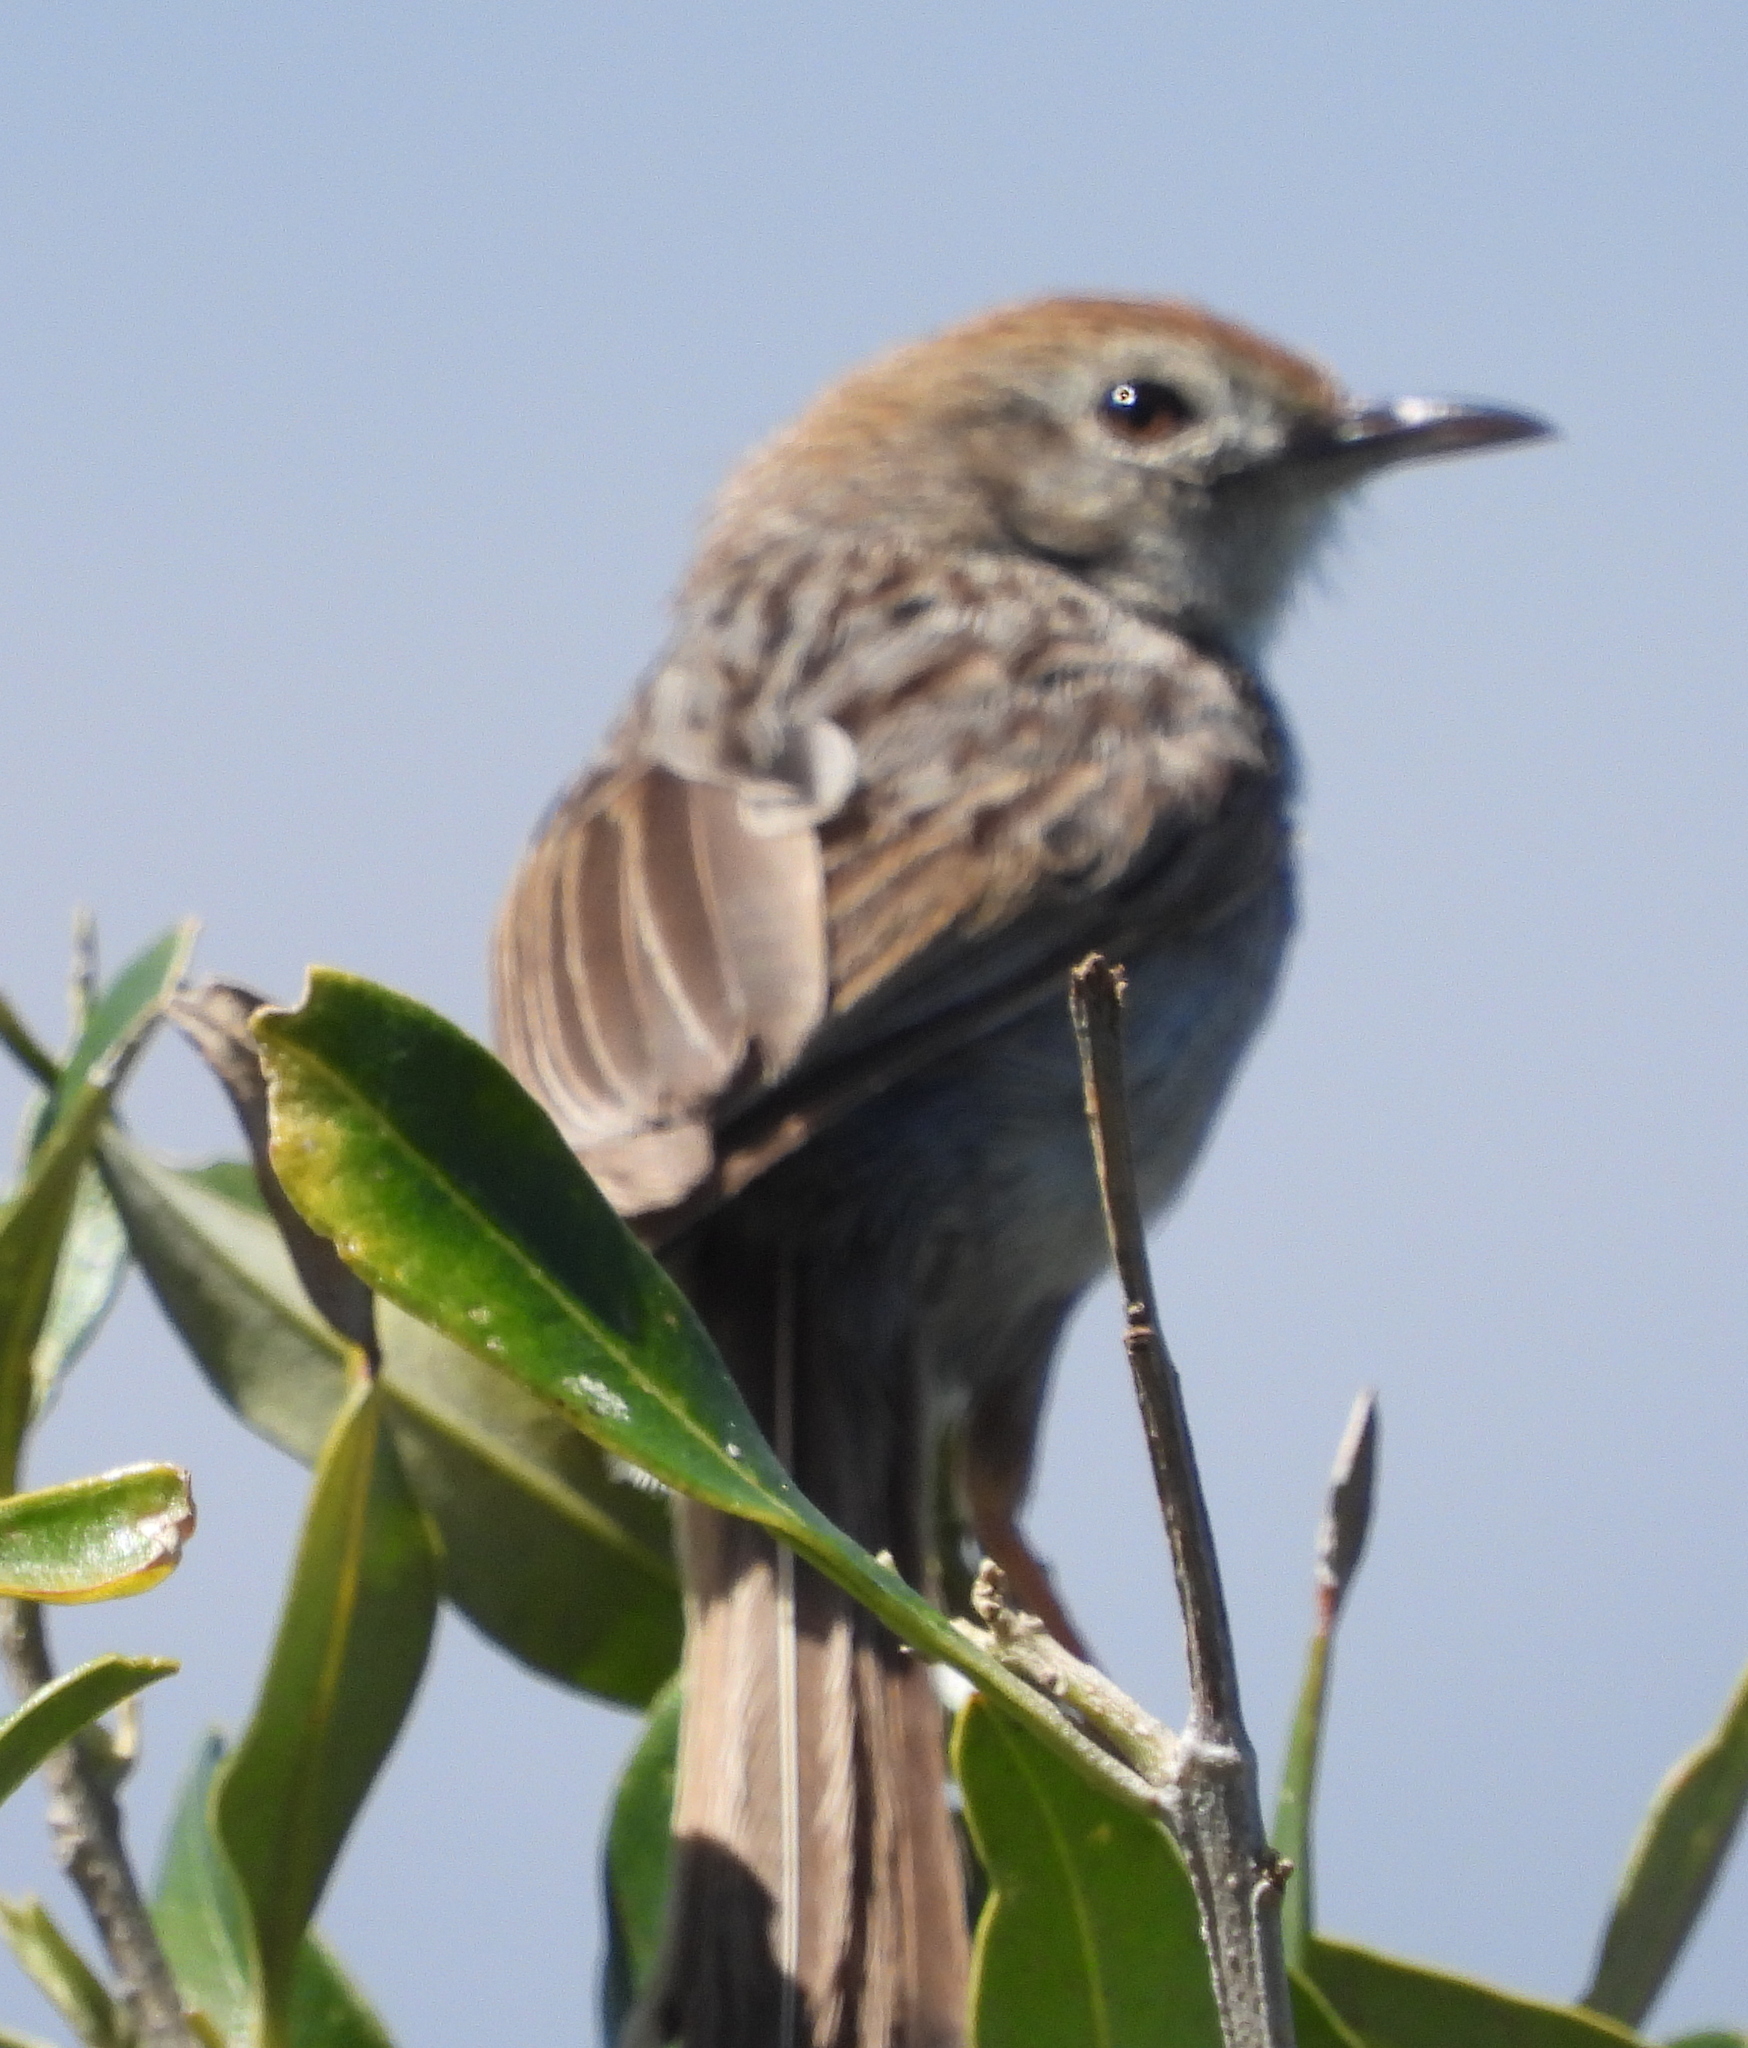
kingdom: Animalia
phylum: Chordata
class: Aves
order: Passeriformes
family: Cisticolidae
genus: Cisticola
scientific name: Cisticola subruficapilla
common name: Grey-backed cisticola
